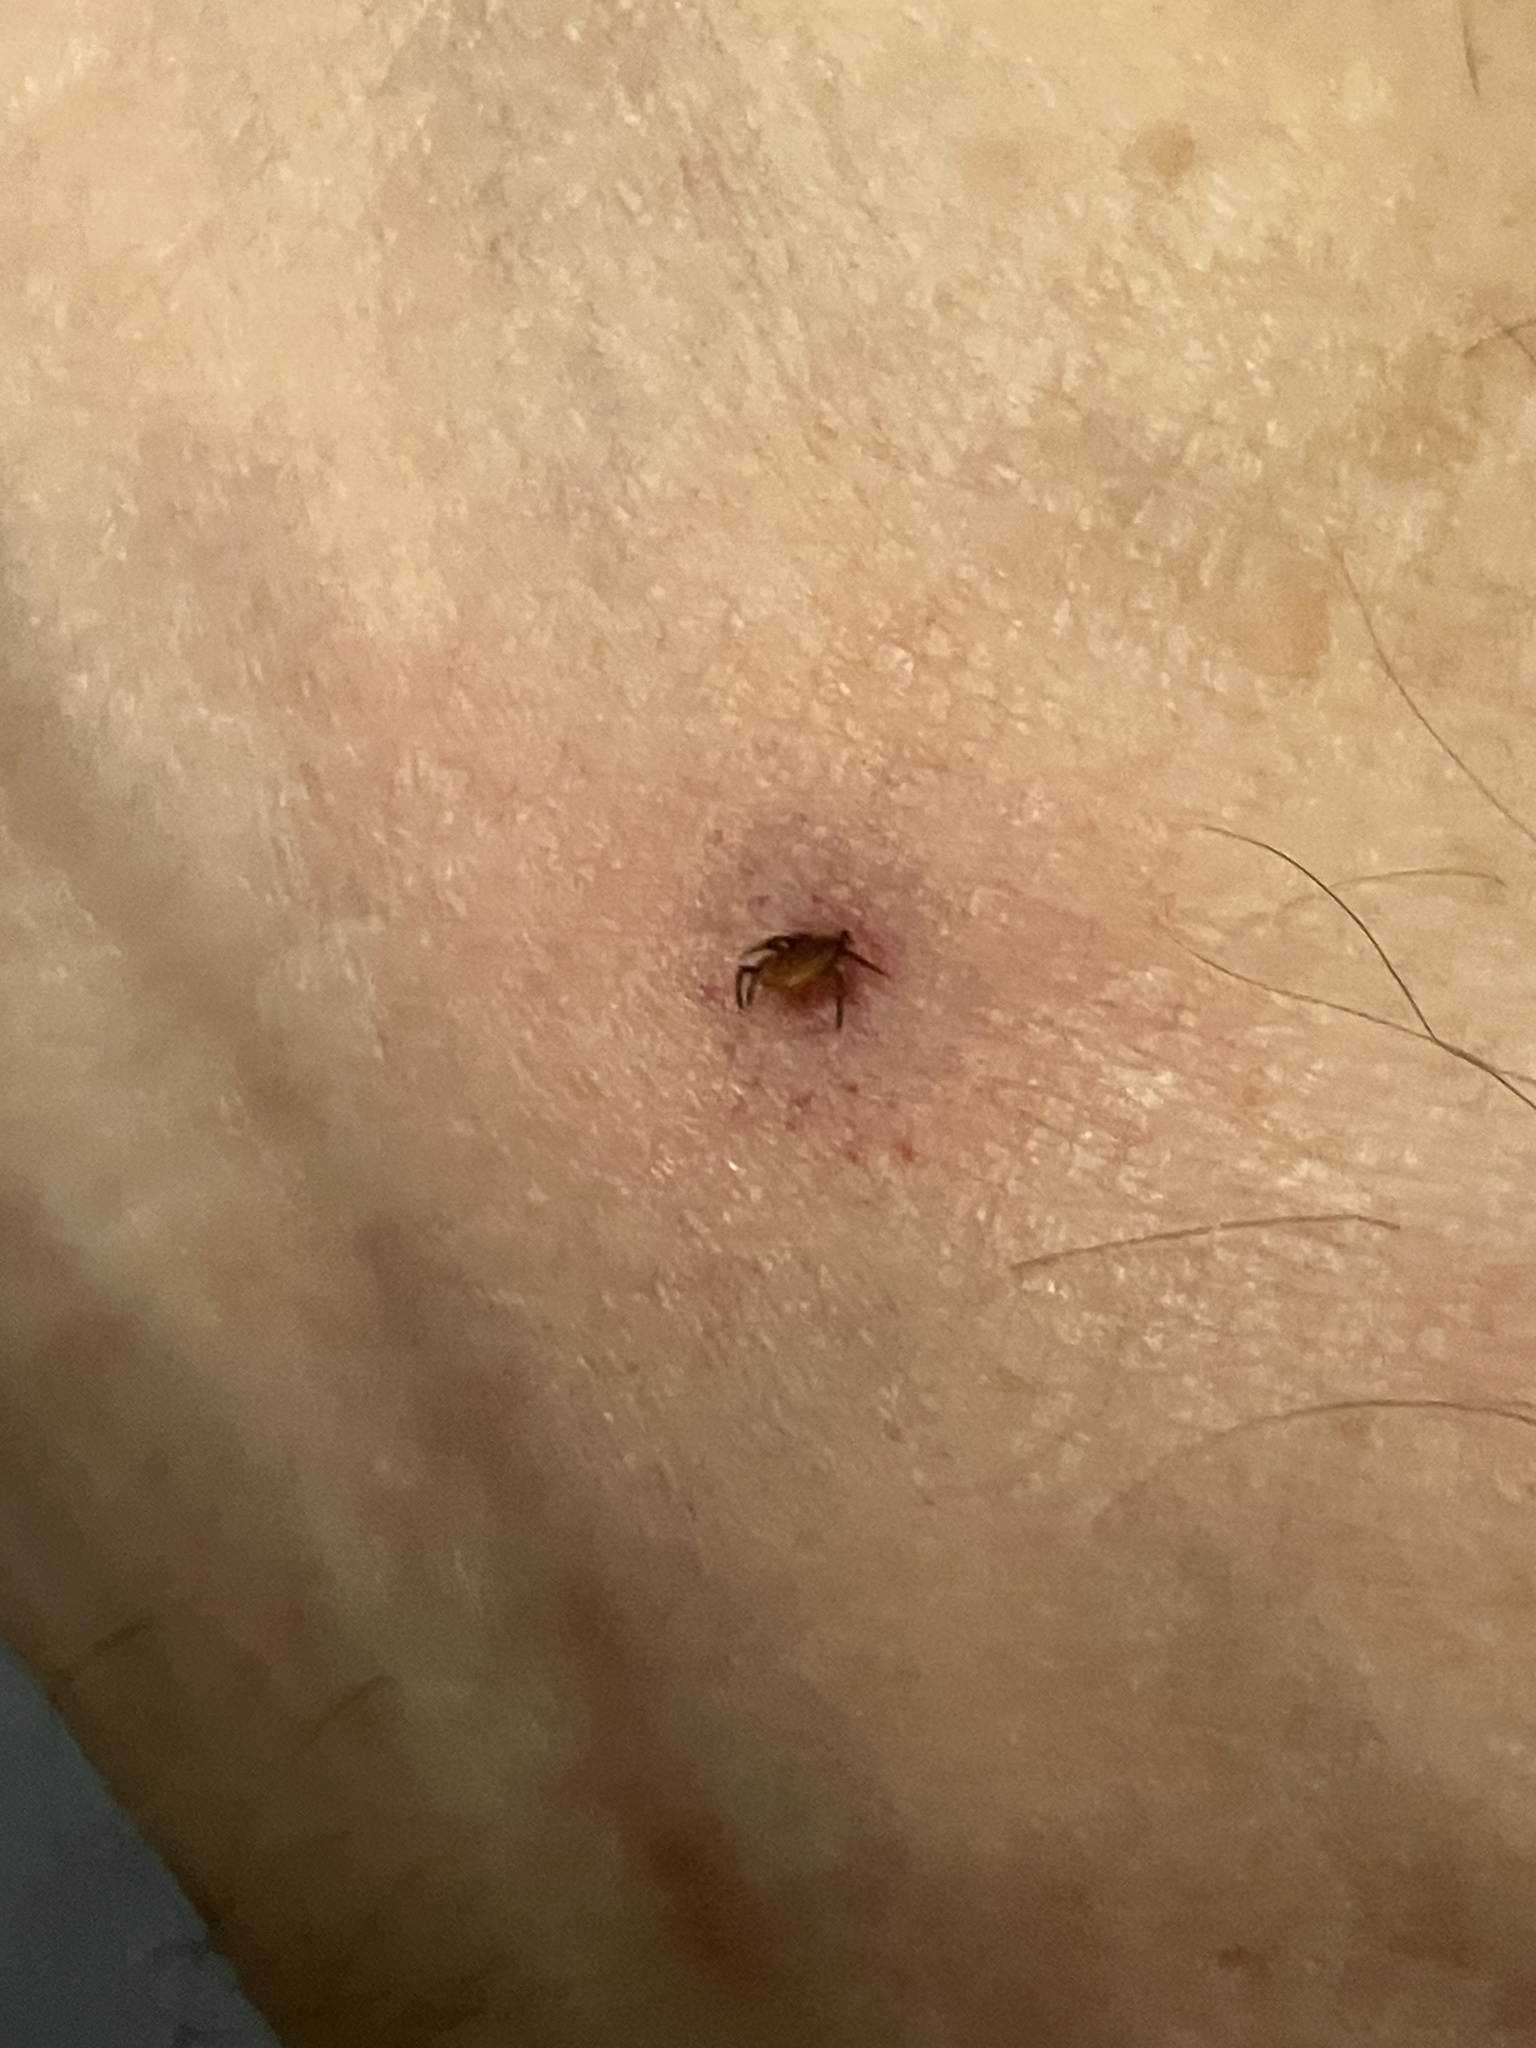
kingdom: Animalia
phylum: Arthropoda
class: Arachnida
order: Ixodida
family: Ixodidae
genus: Ixodes
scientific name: Ixodes scapularis
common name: Black legged tick
